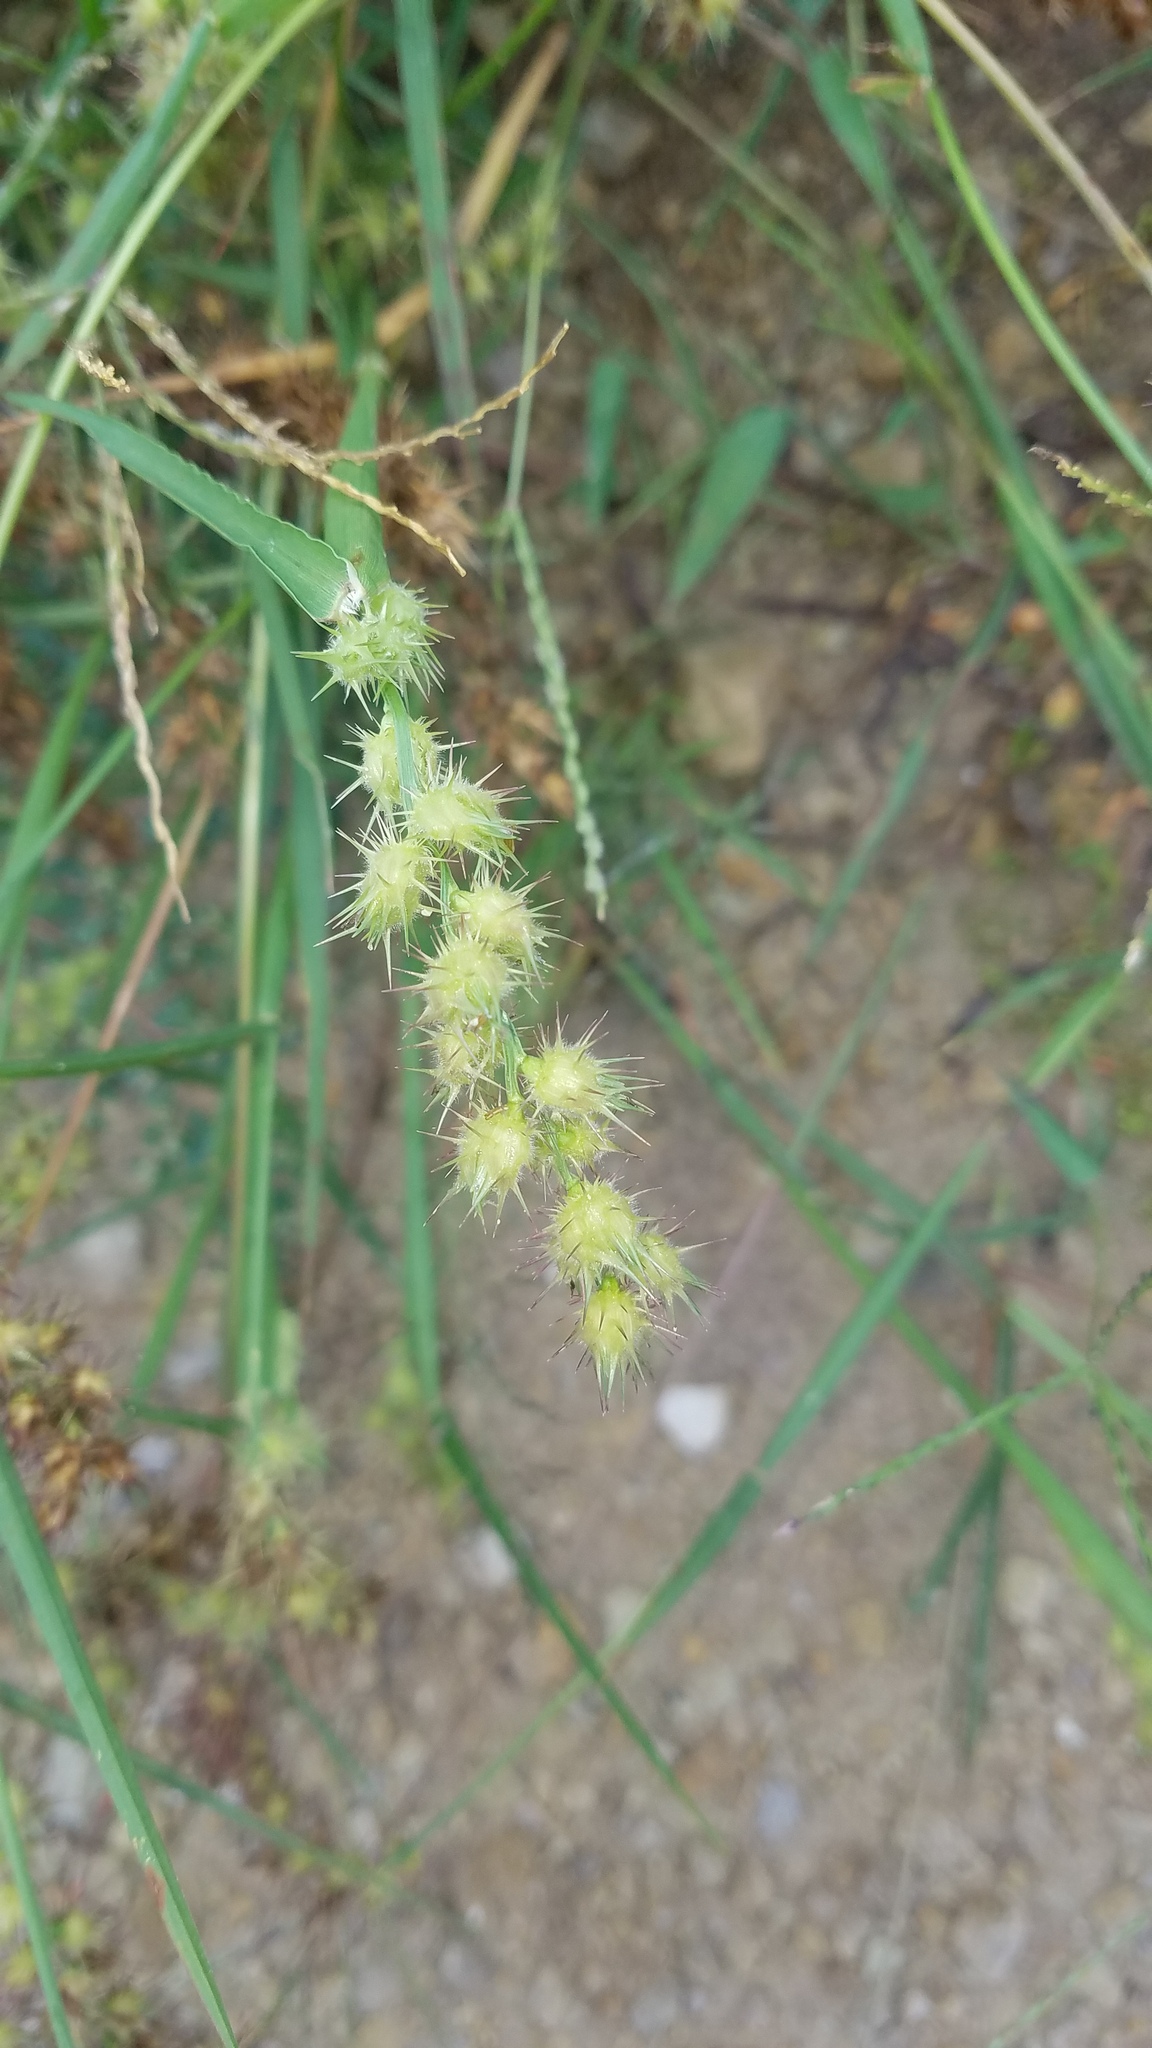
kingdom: Plantae
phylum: Tracheophyta
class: Liliopsida
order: Poales
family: Poaceae
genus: Cenchrus
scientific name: Cenchrus longispinus
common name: Mat sandbur
